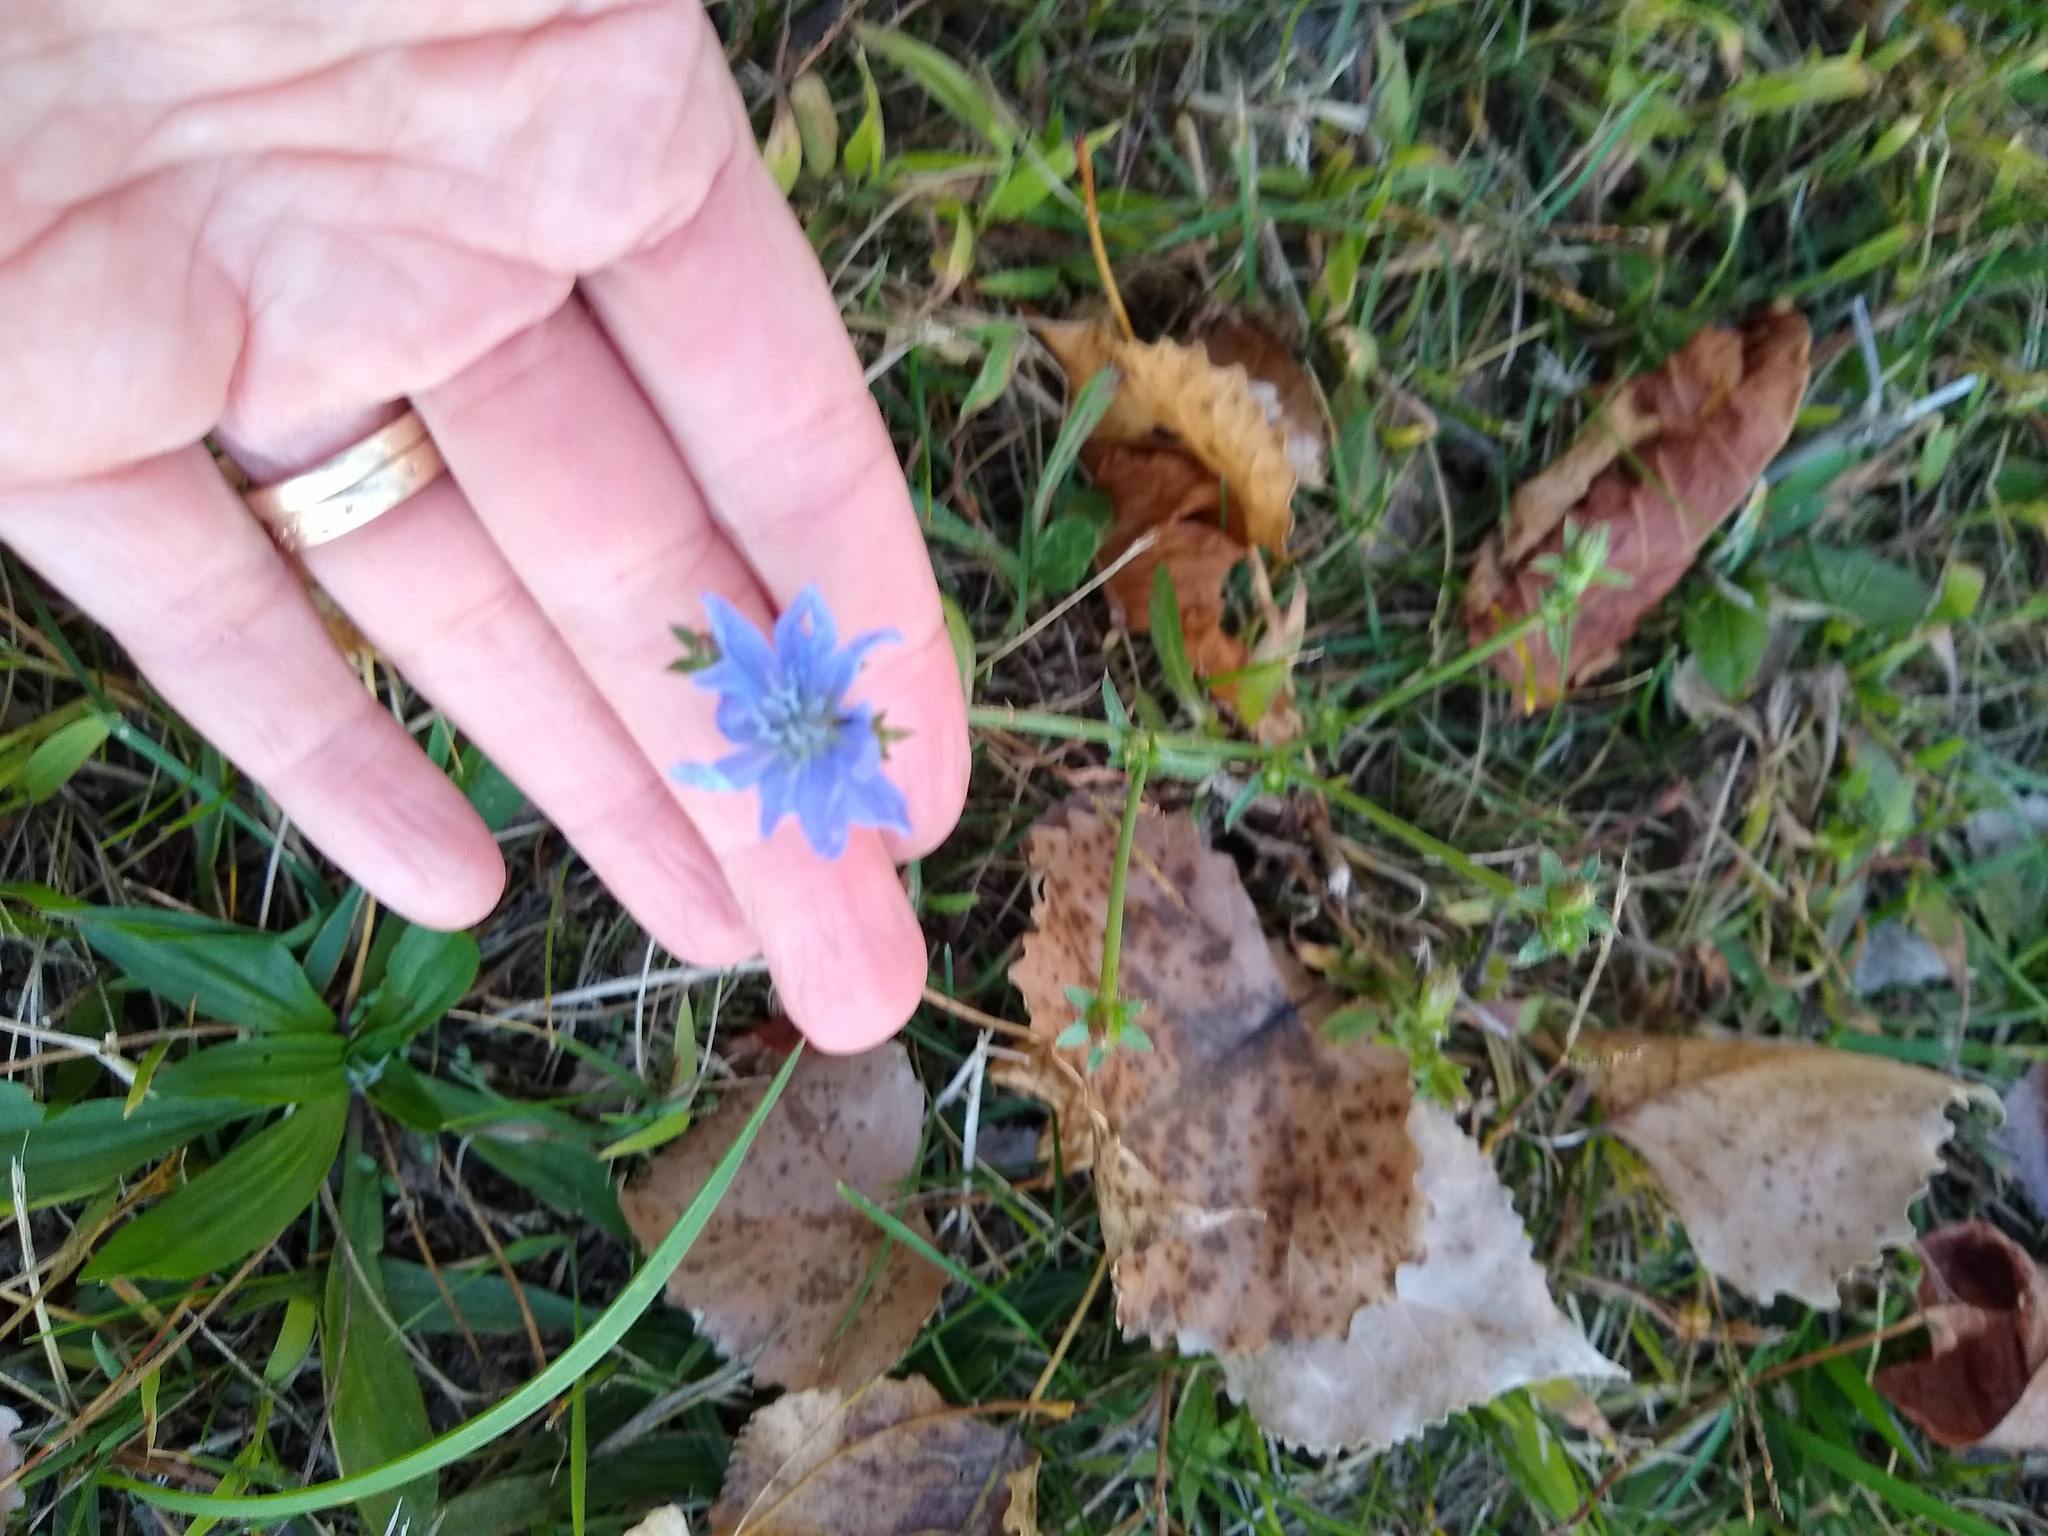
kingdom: Plantae
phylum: Tracheophyta
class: Magnoliopsida
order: Asterales
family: Asteraceae
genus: Cichorium
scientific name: Cichorium intybus
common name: Chicory
